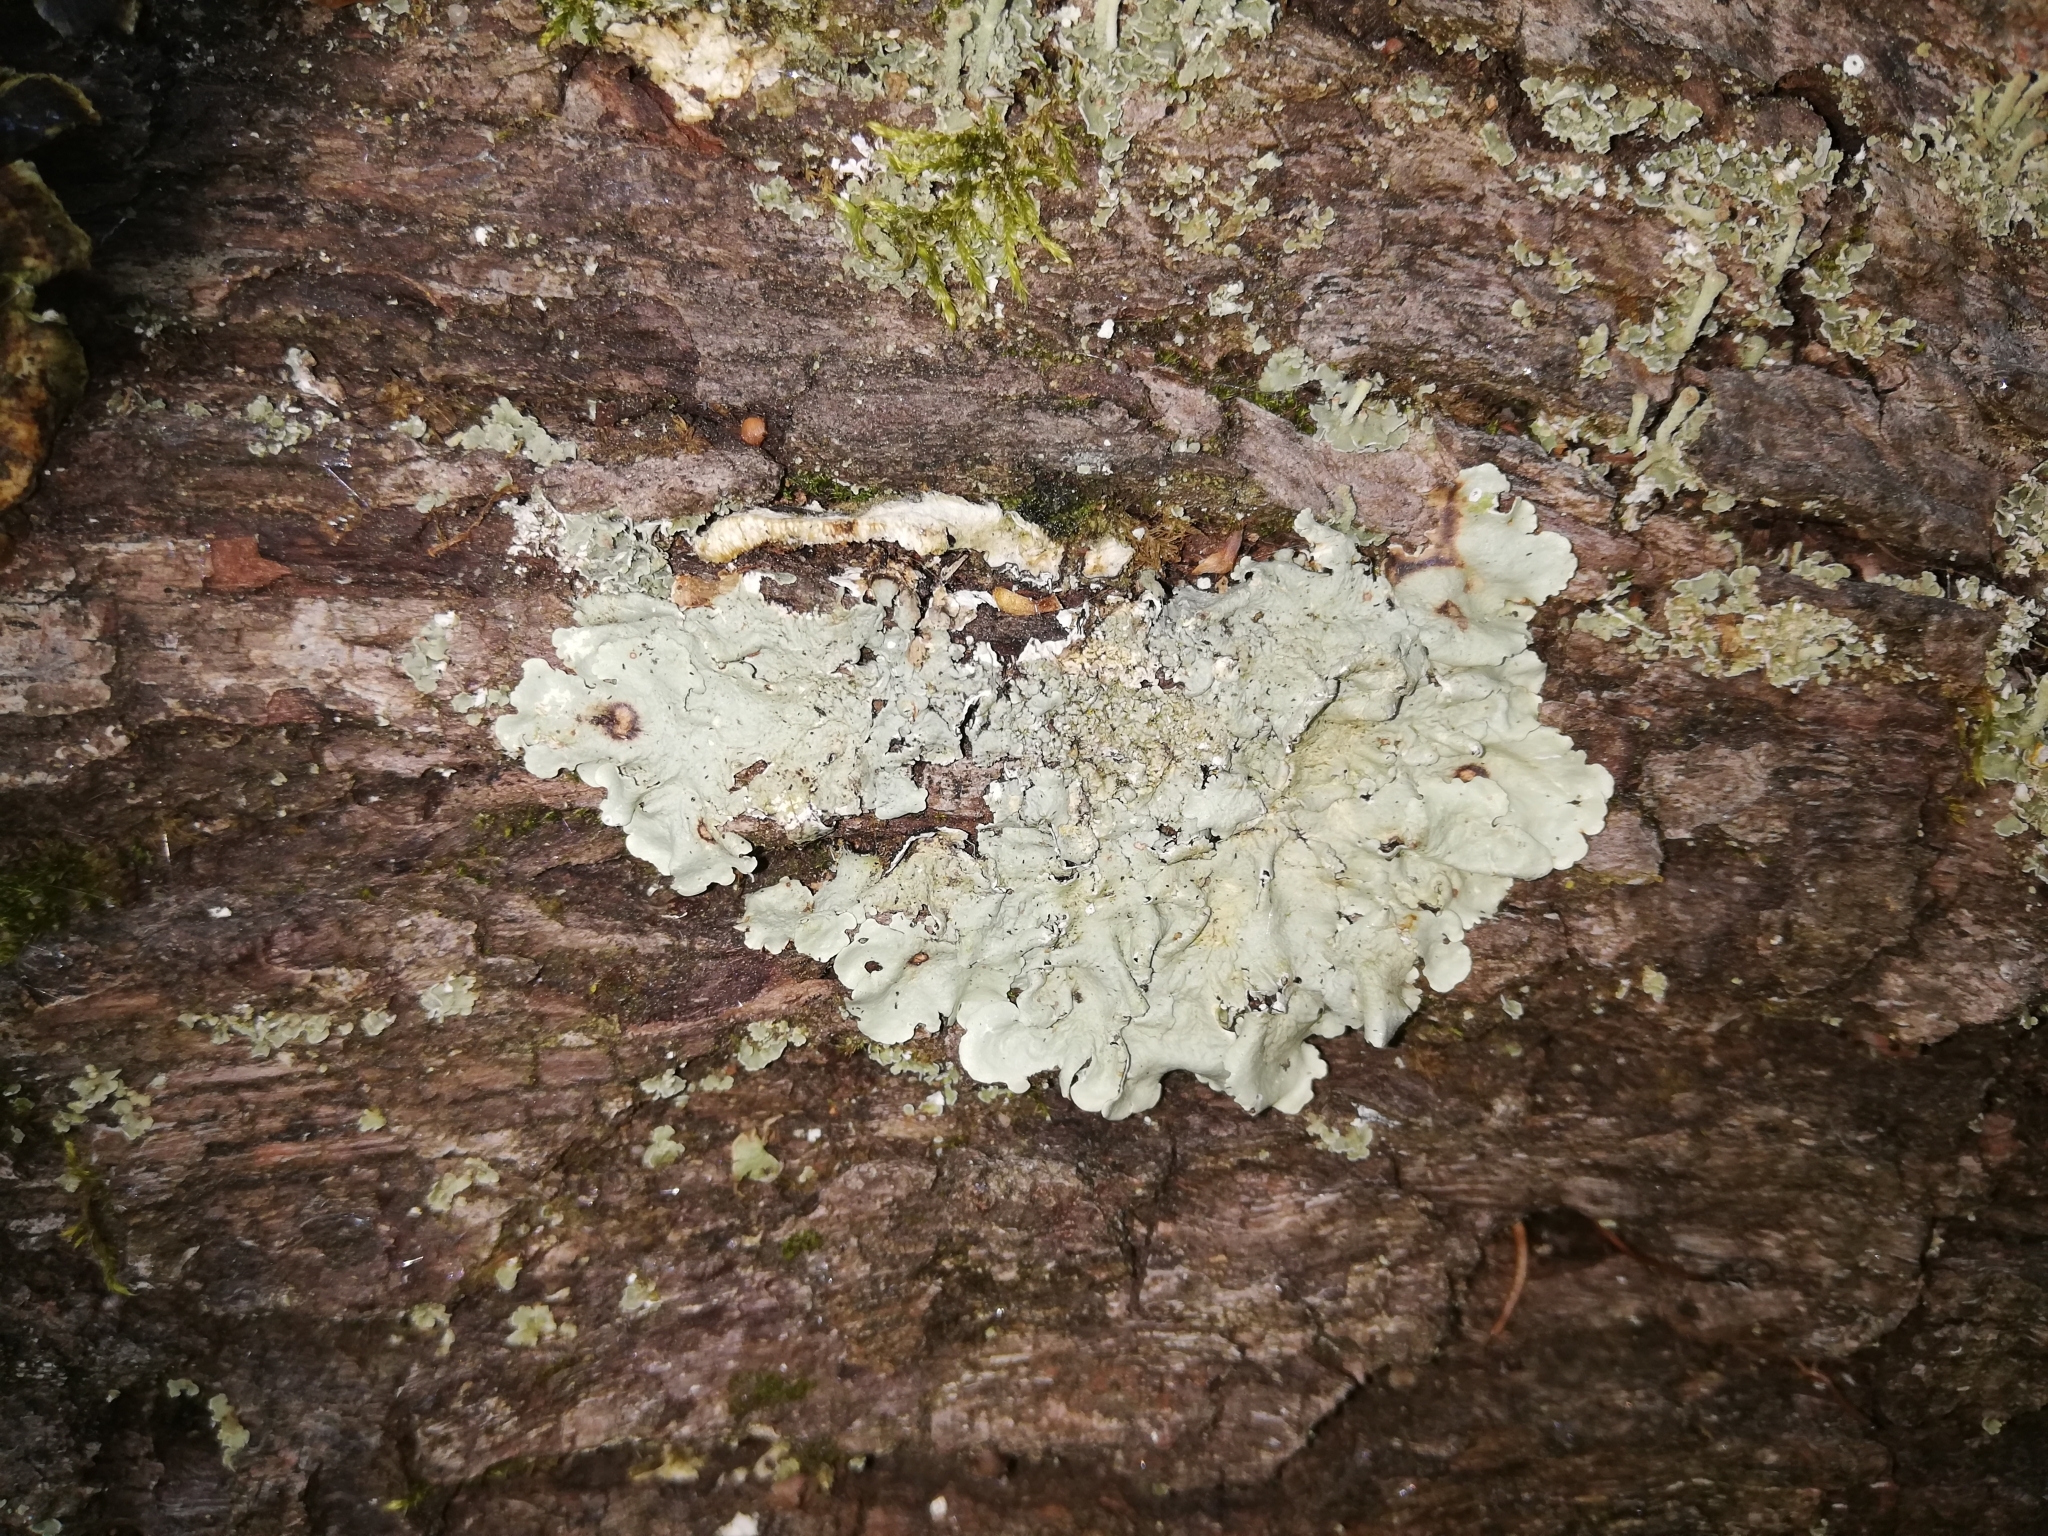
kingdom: Fungi
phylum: Ascomycota
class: Lecanoromycetes
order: Lecanorales
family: Parmeliaceae
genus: Flavoparmelia
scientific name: Flavoparmelia caperata
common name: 40-mile per hour lichen
